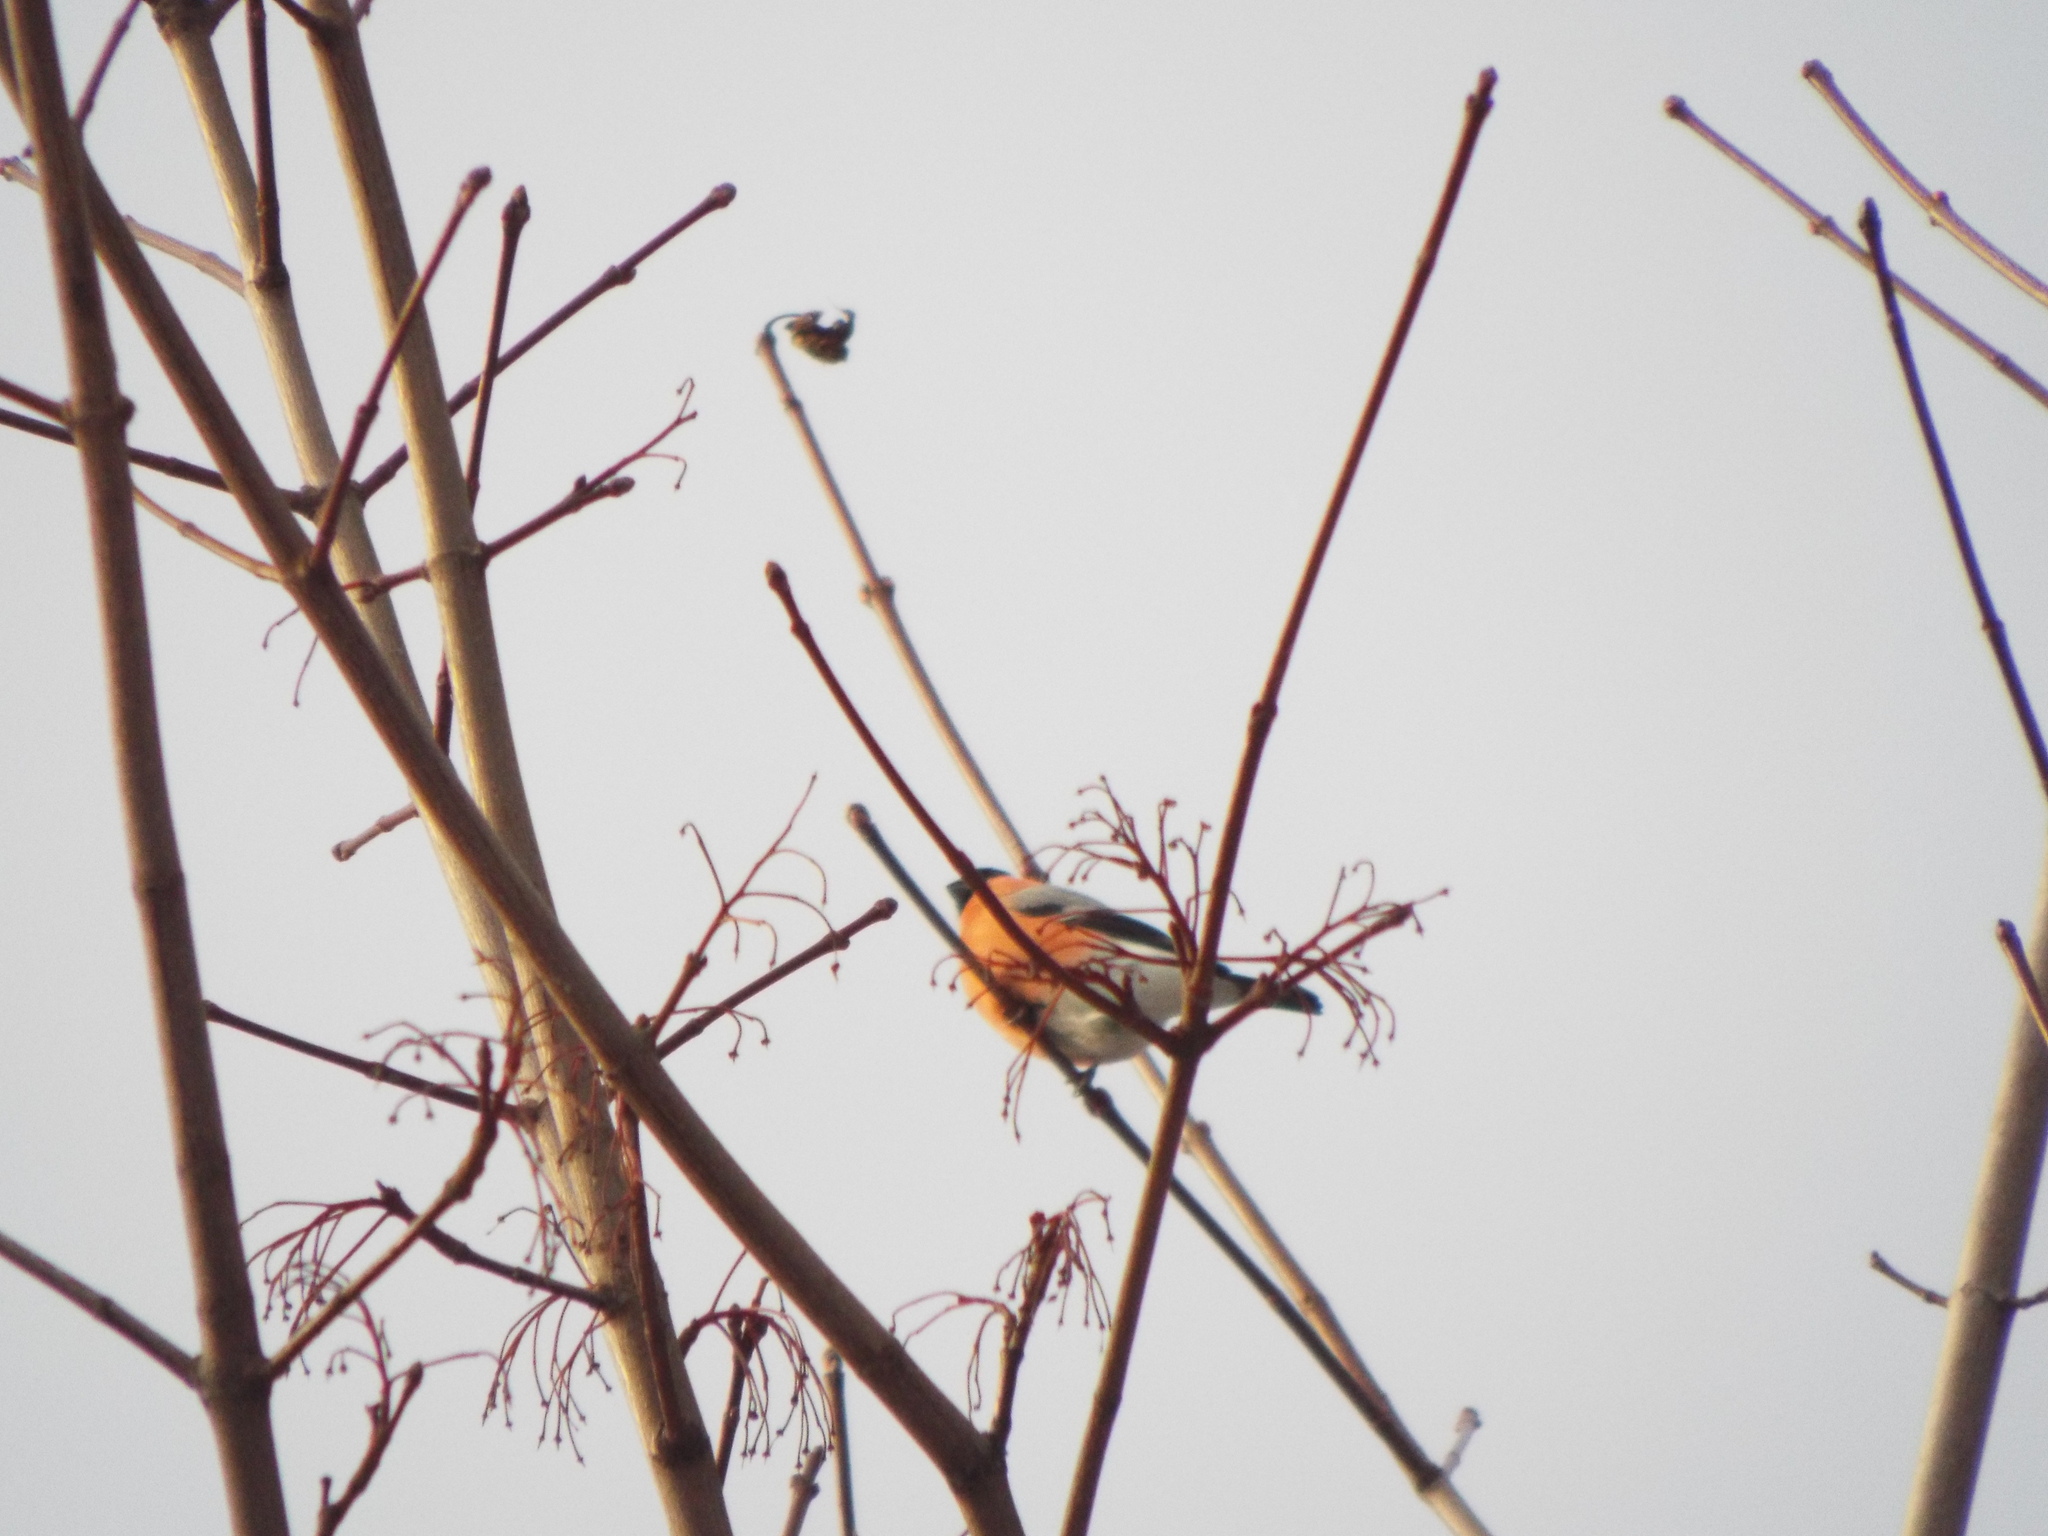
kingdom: Animalia
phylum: Chordata
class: Aves
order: Passeriformes
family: Fringillidae
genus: Pyrrhula
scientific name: Pyrrhula pyrrhula
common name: Eurasian bullfinch
